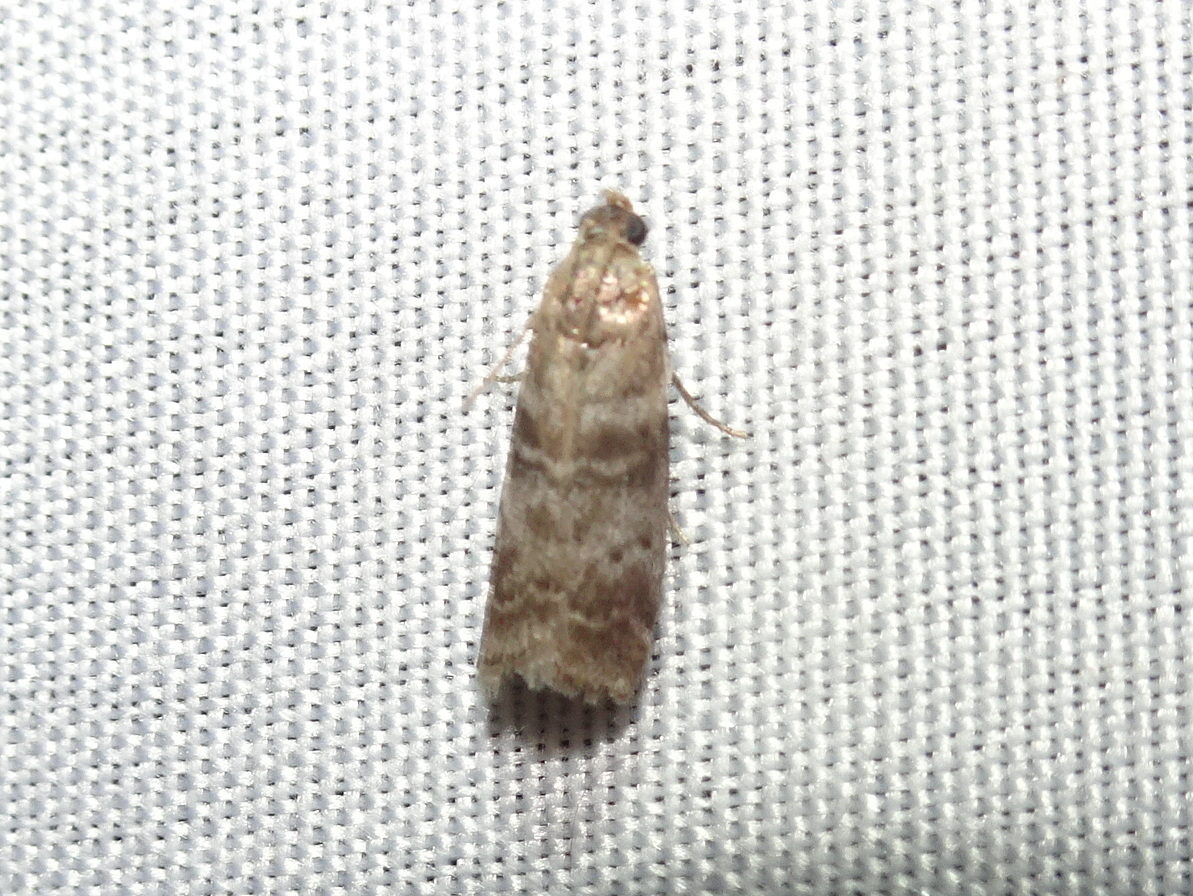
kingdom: Animalia
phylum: Arthropoda
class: Insecta
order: Lepidoptera
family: Pyralidae
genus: Sciota
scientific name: Sciota uvinella
